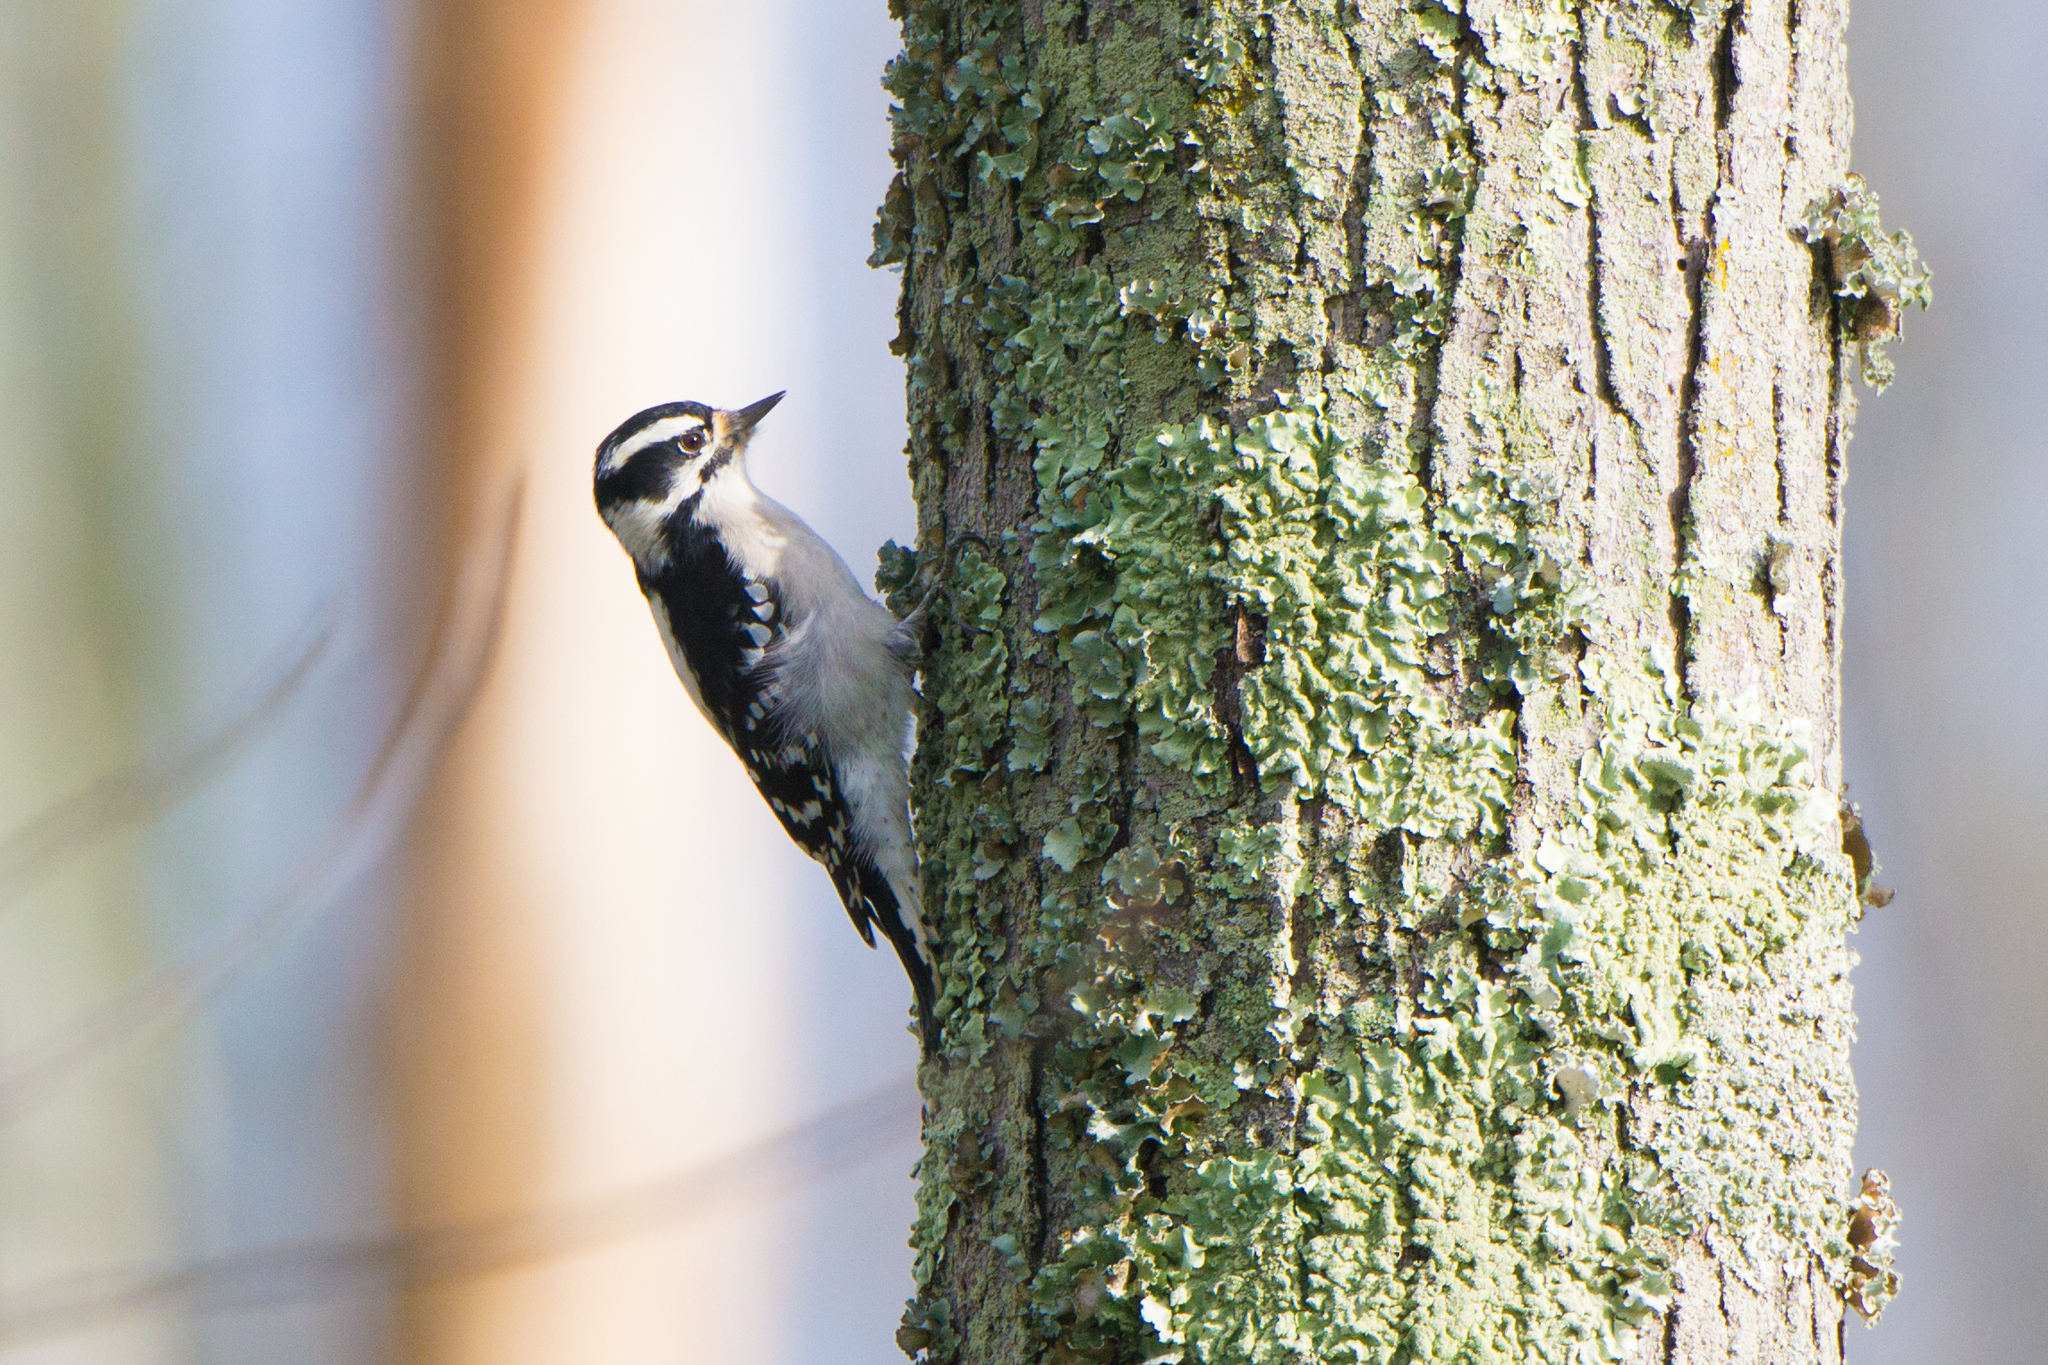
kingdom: Animalia
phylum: Chordata
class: Aves
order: Piciformes
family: Picidae
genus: Dryobates
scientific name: Dryobates pubescens
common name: Downy woodpecker
